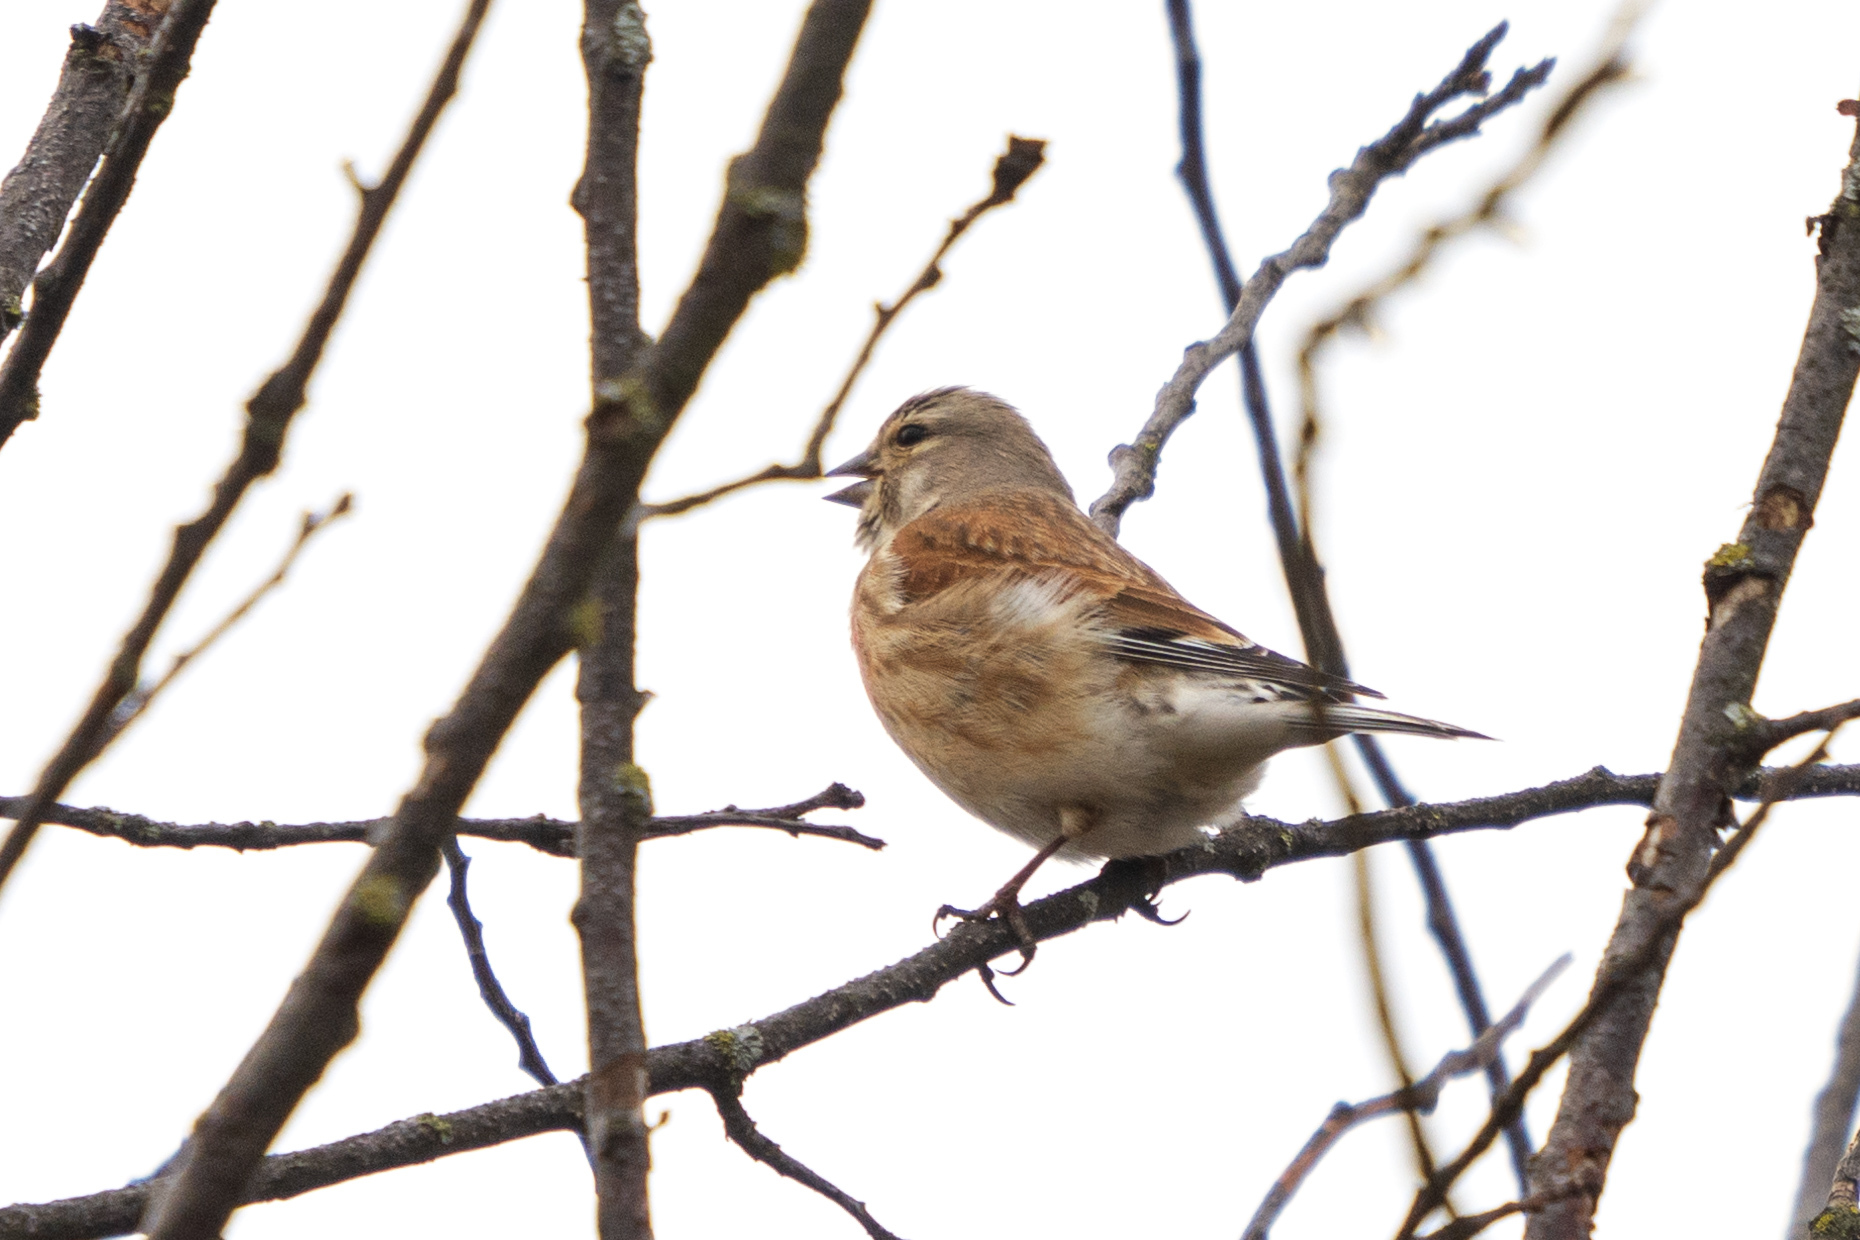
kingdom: Animalia
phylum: Chordata
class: Aves
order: Passeriformes
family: Fringillidae
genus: Linaria
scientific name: Linaria cannabina
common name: Common linnet
